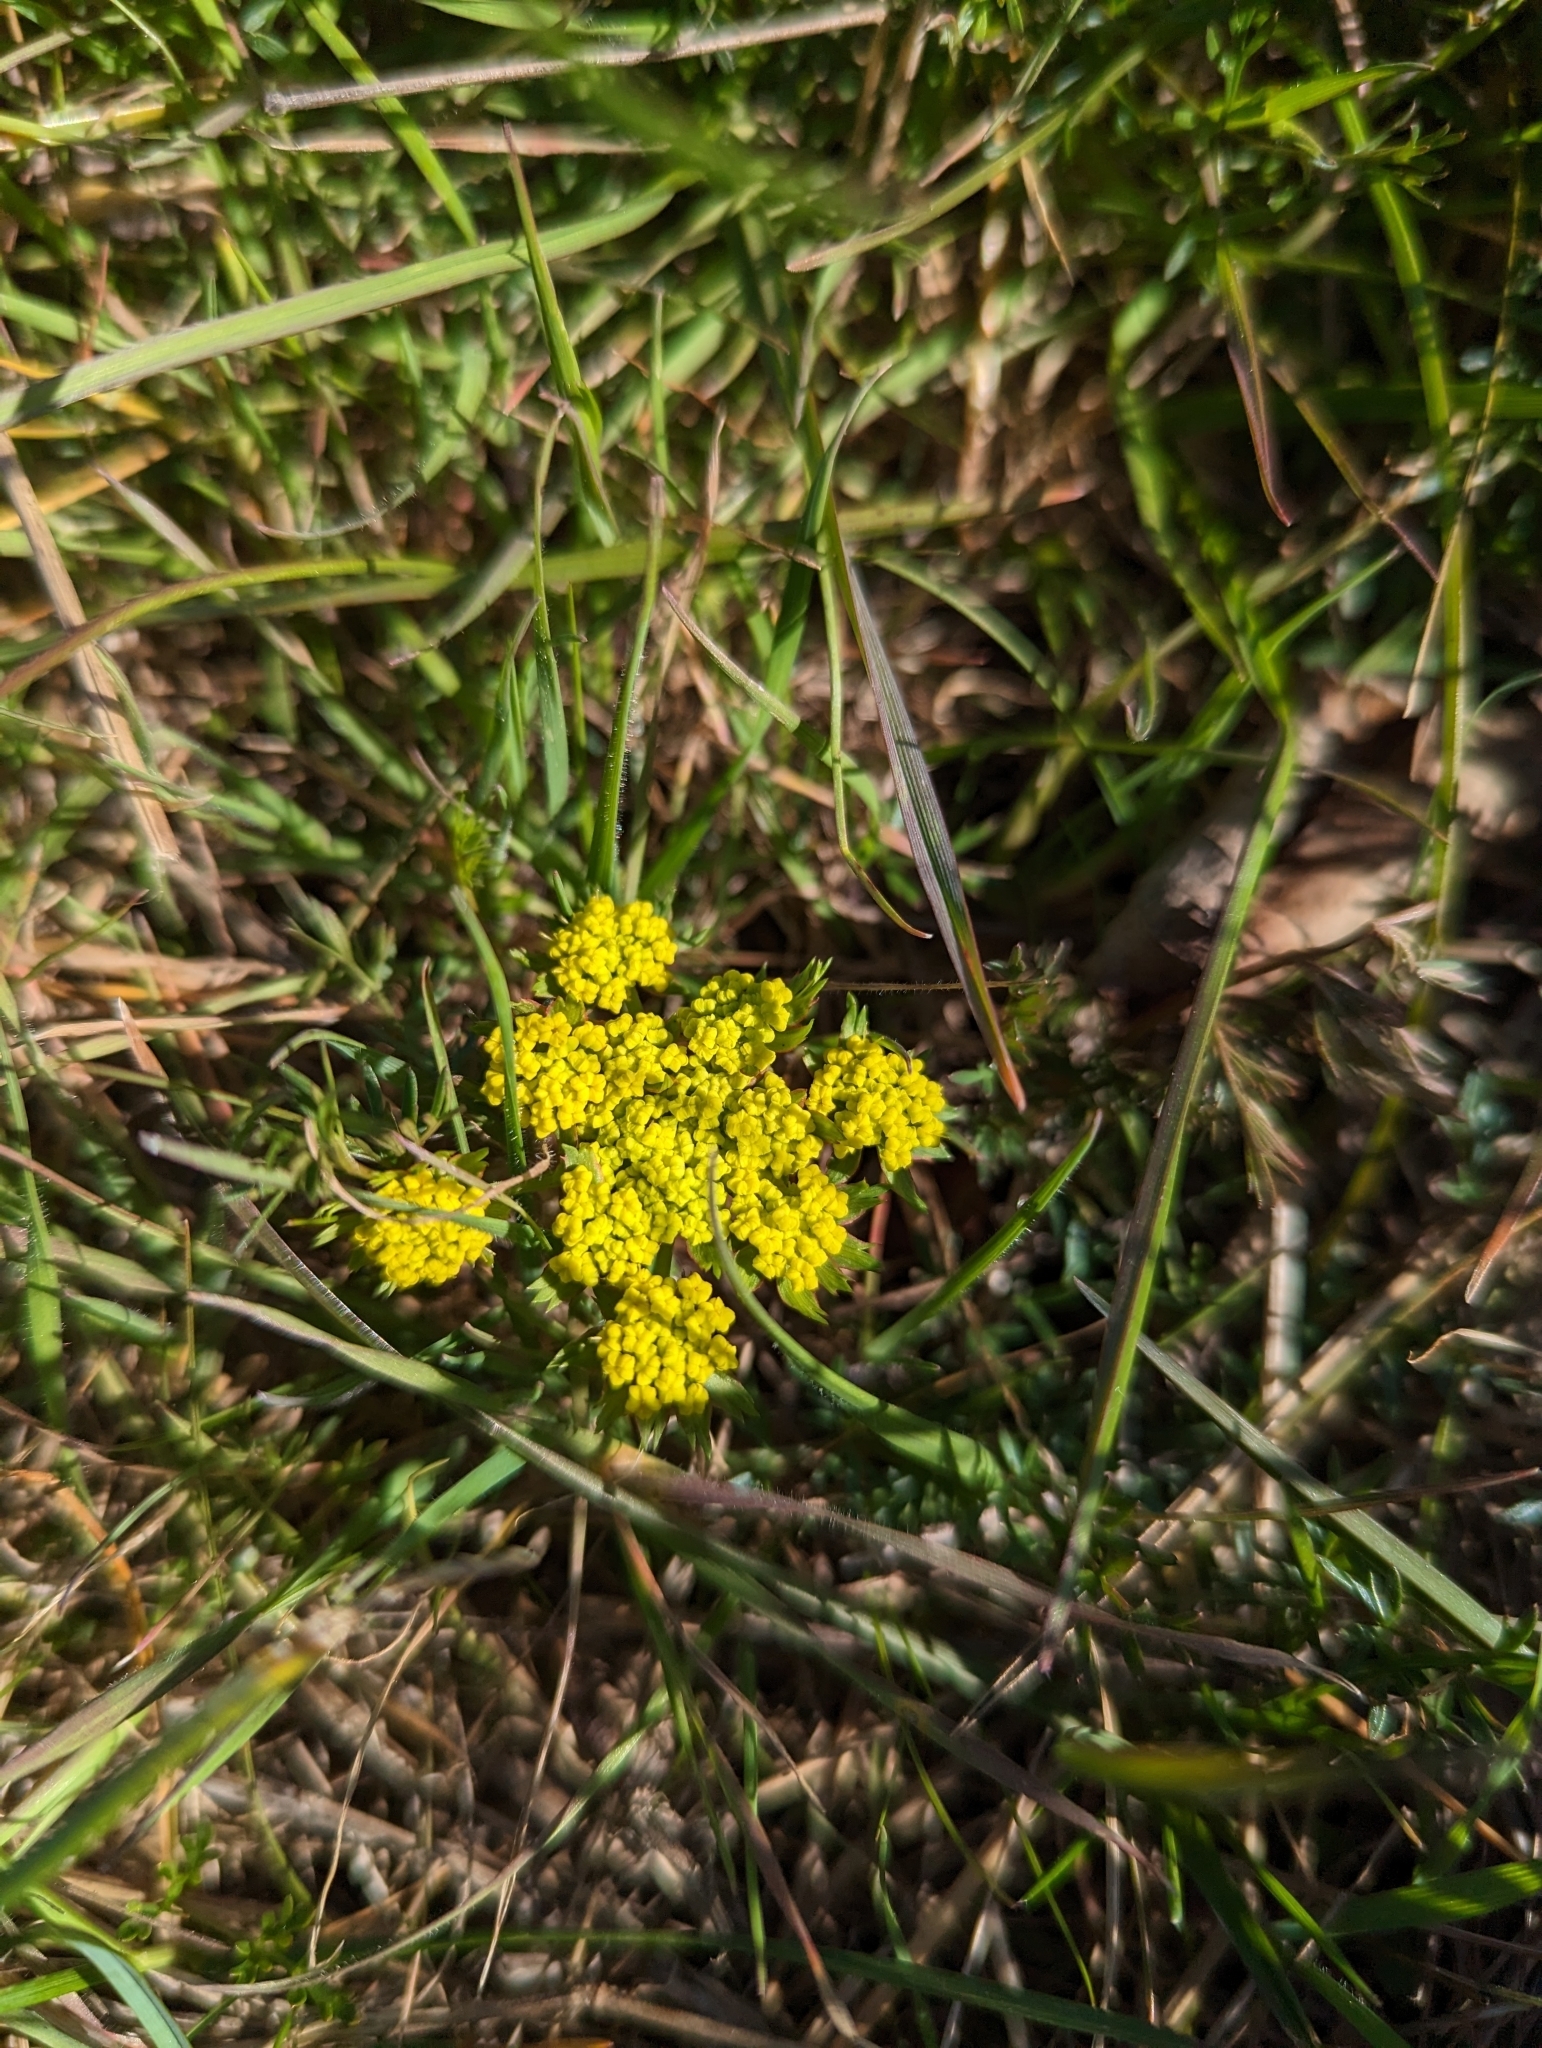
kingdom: Plantae
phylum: Tracheophyta
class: Magnoliopsida
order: Apiales
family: Apiaceae
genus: Lomatium
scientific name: Lomatium utriculatum
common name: Fine-leaf desert-parsley
